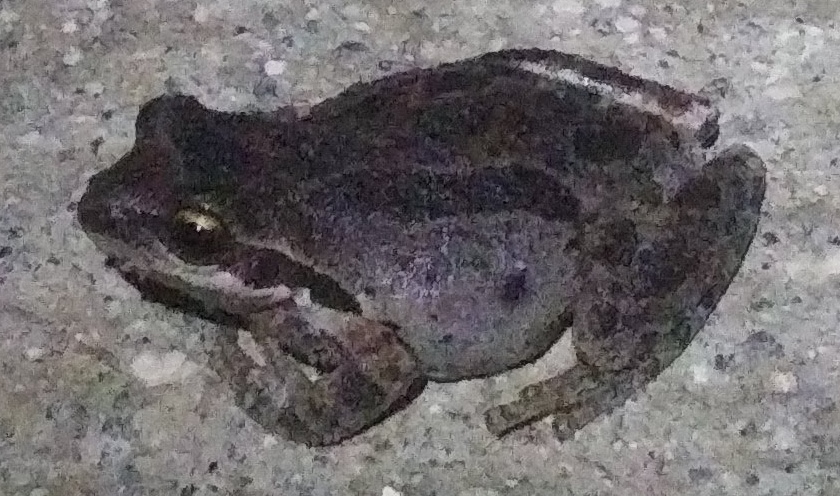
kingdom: Animalia
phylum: Chordata
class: Amphibia
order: Anura
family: Hylidae
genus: Pseudacris
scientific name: Pseudacris regilla
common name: Pacific chorus frog
